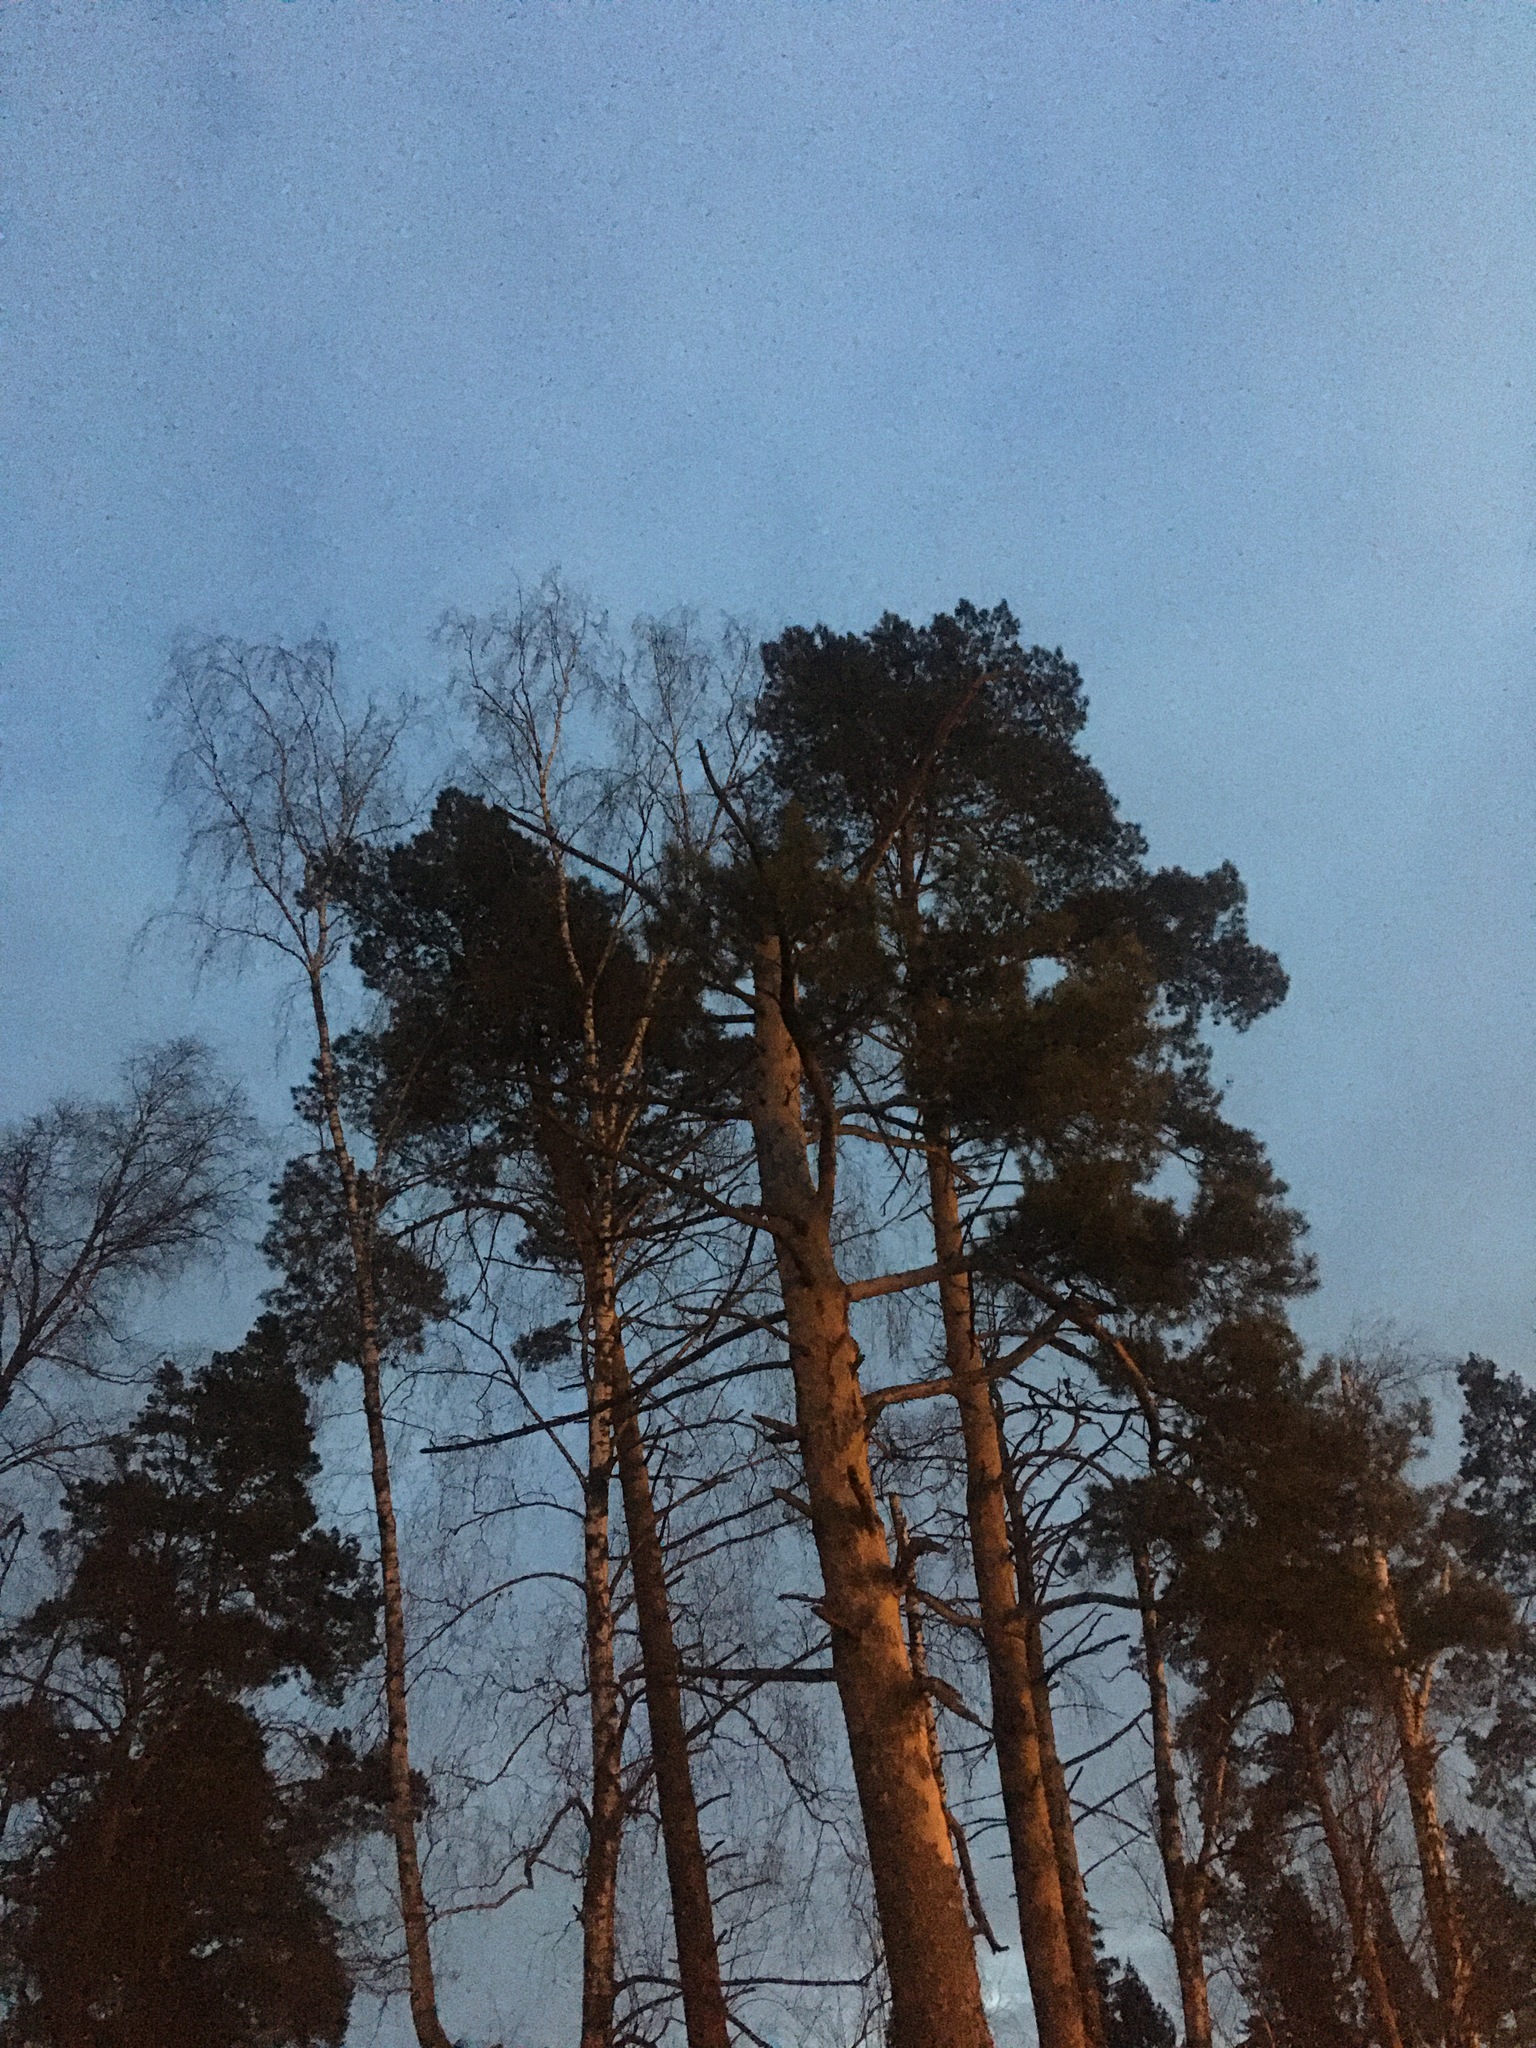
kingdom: Plantae
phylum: Tracheophyta
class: Pinopsida
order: Pinales
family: Pinaceae
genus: Pinus
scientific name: Pinus sylvestris
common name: Scots pine
